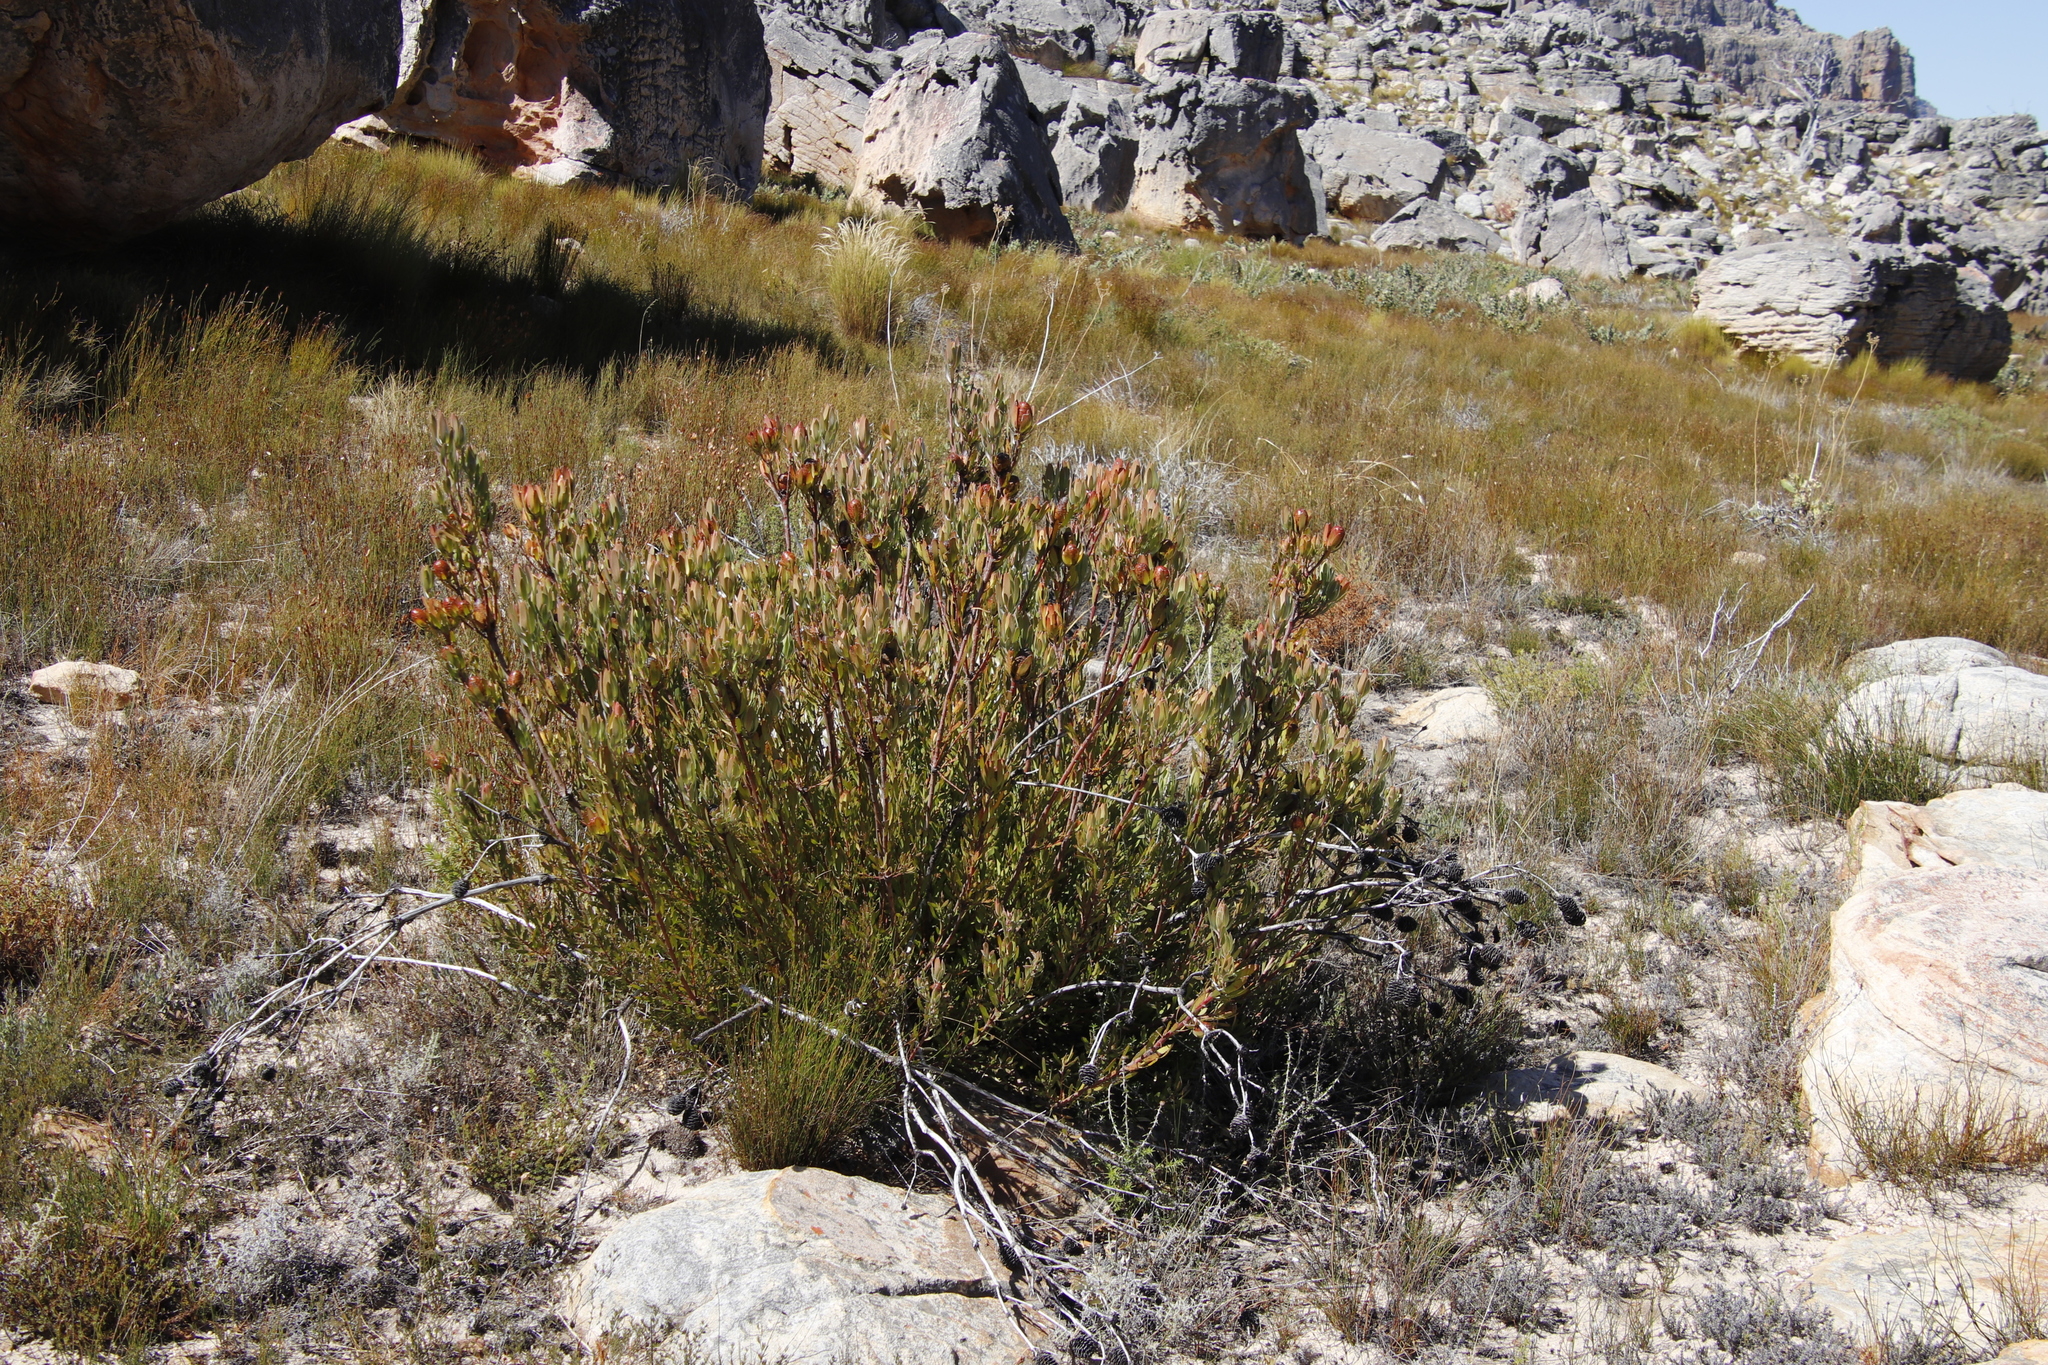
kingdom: Plantae
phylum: Tracheophyta
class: Magnoliopsida
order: Proteales
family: Proteaceae
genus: Leucadendron
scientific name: Leucadendron spissifolium
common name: Spear-leaf conebush
